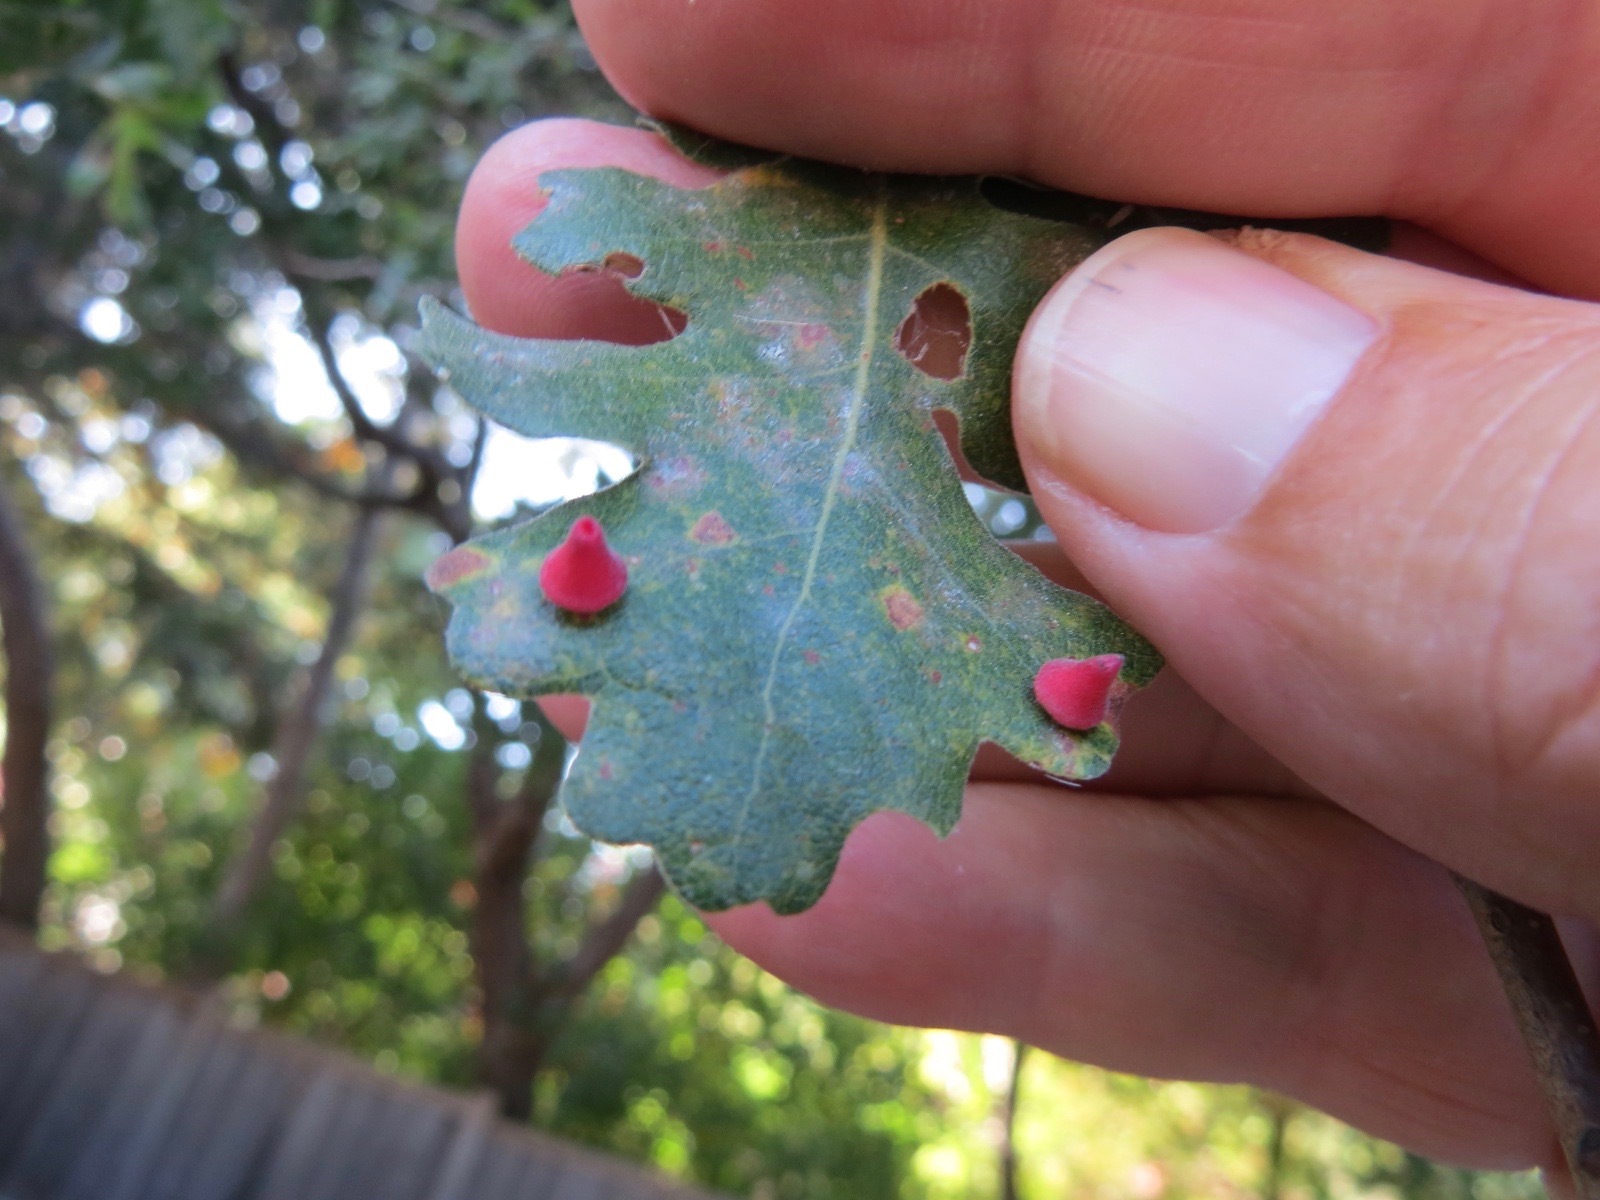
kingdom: Animalia
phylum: Arthropoda
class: Insecta
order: Hymenoptera
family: Cynipidae
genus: Andricus
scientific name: Andricus
